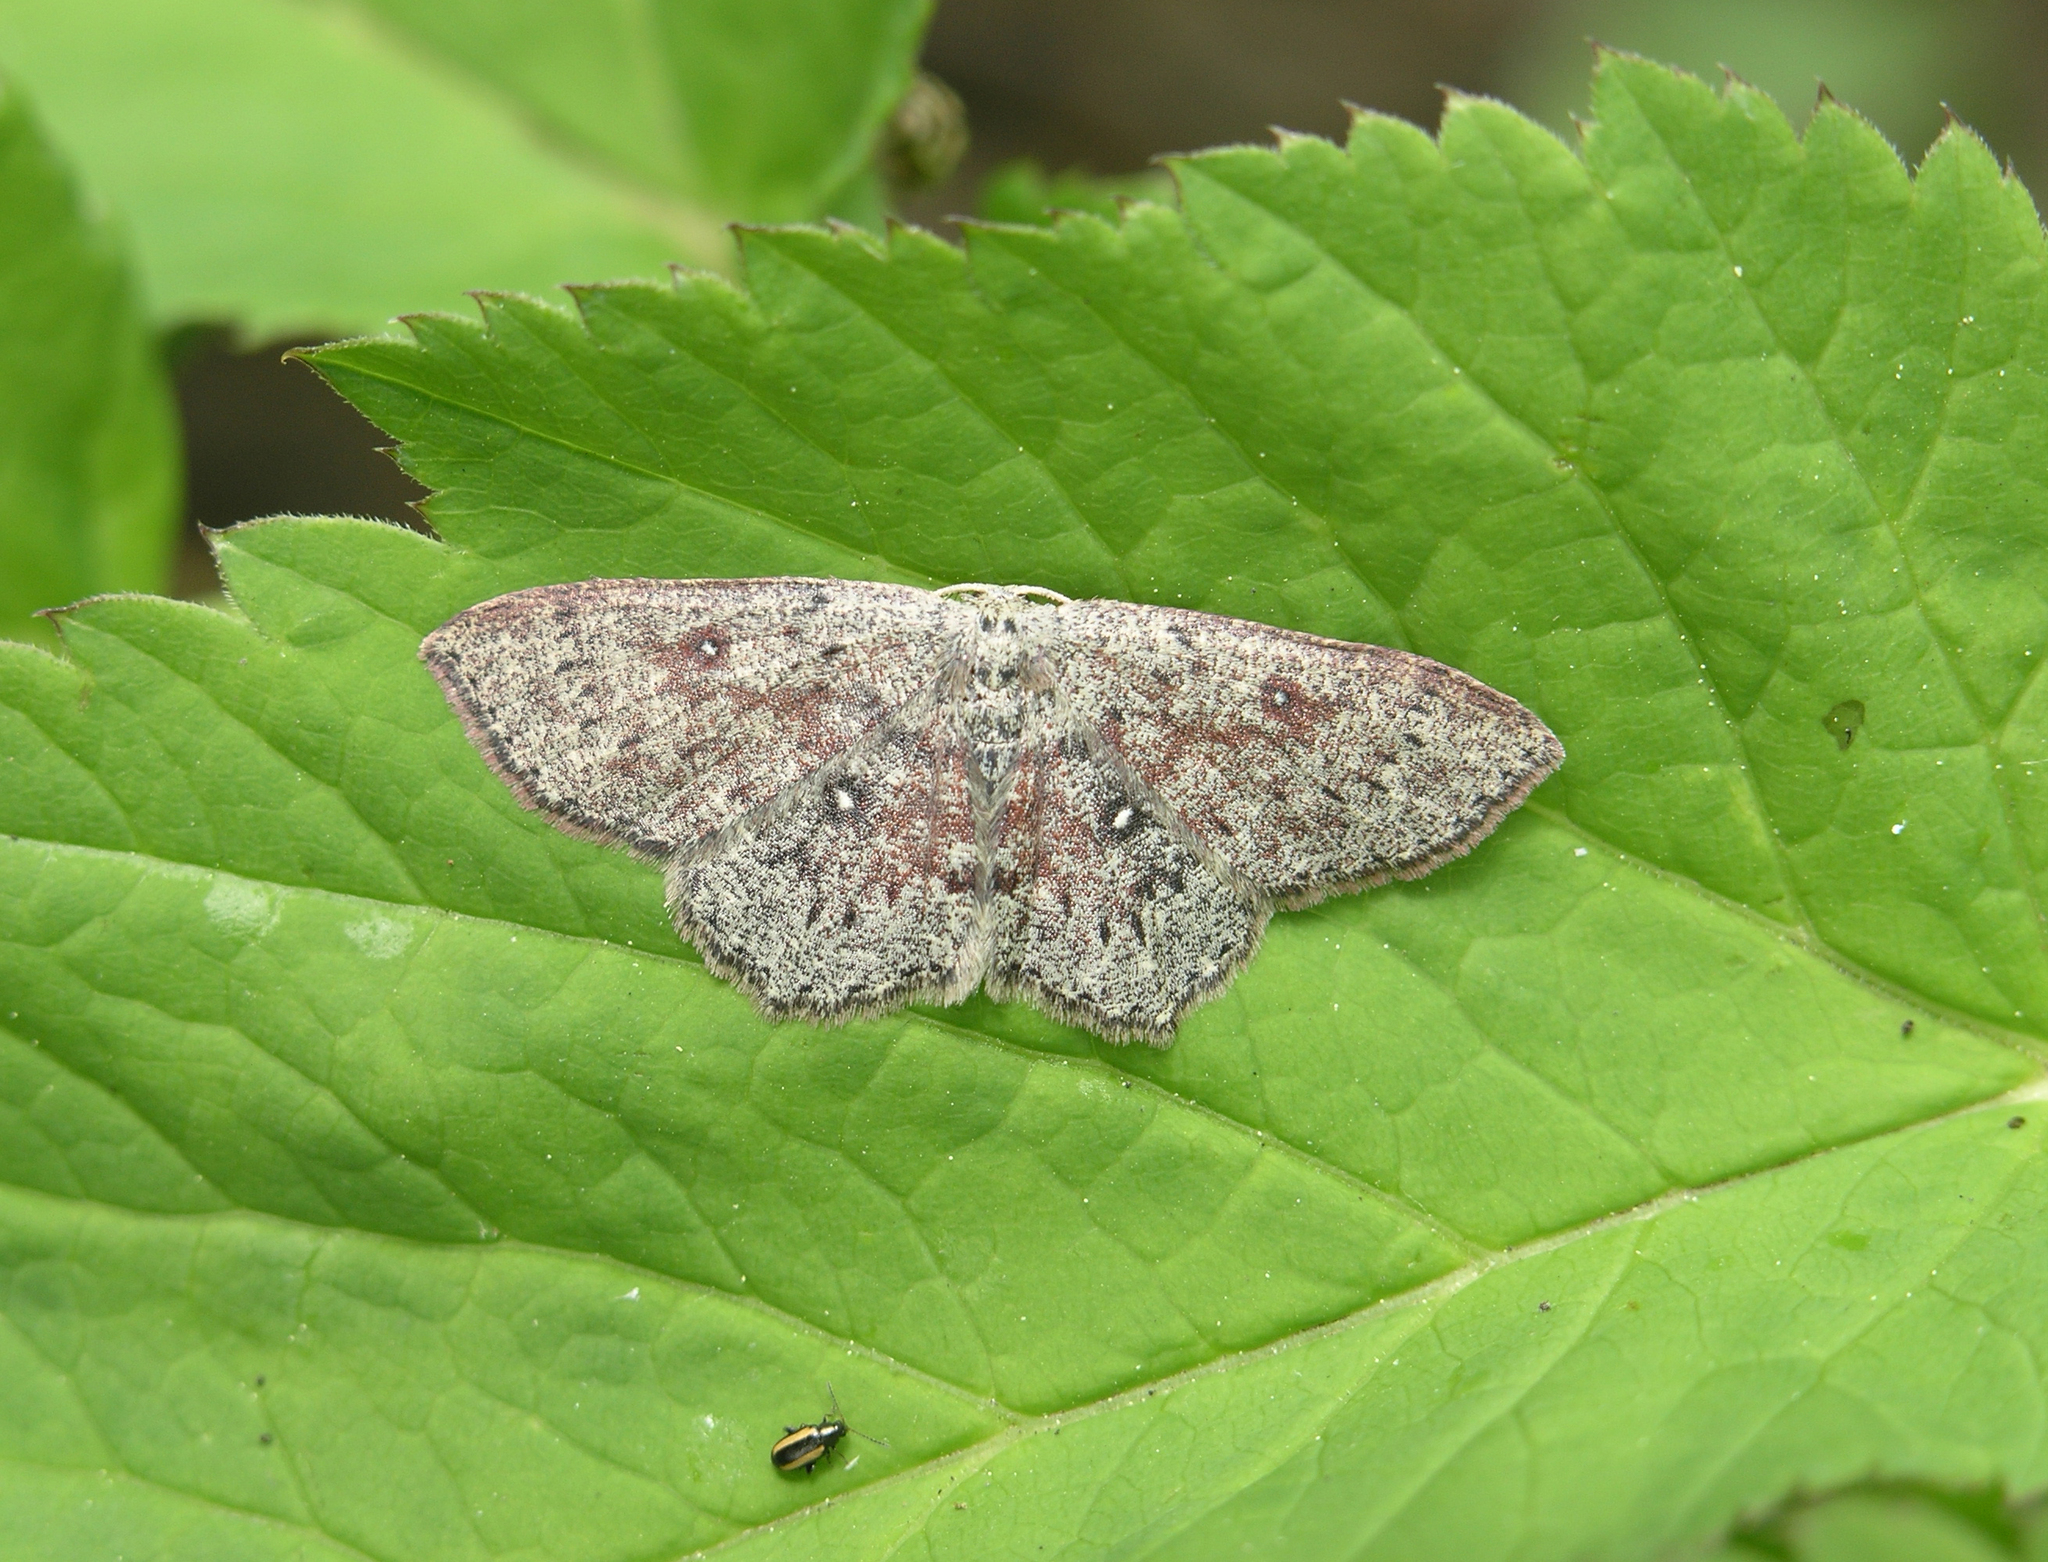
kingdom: Animalia
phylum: Arthropoda
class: Insecta
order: Lepidoptera
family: Geometridae
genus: Cyclophora
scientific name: Cyclophora pendularia
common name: Dingy mocha
